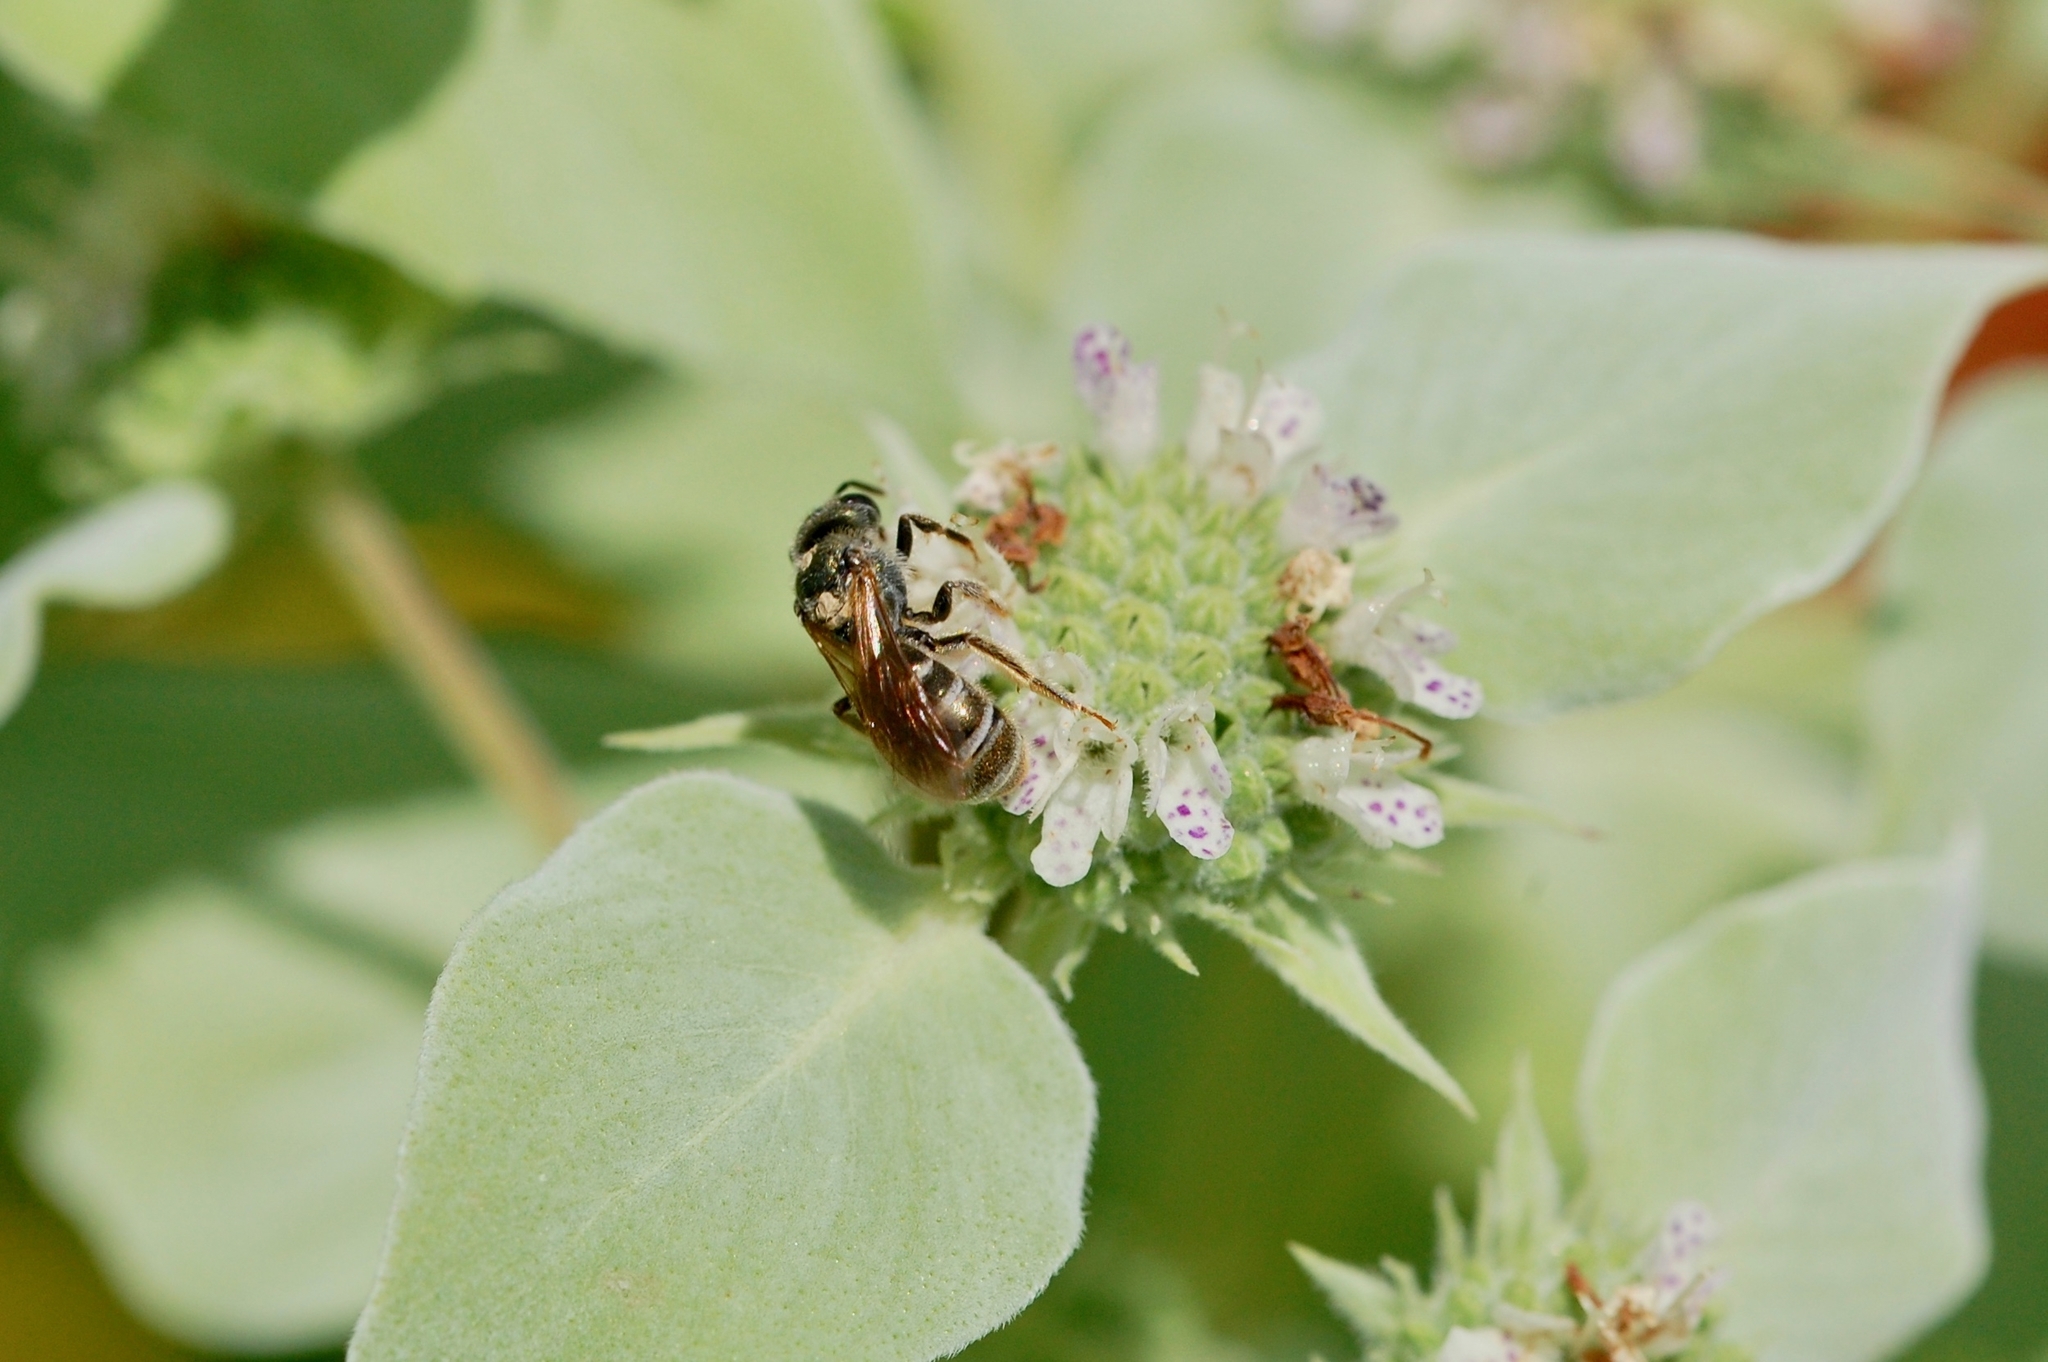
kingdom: Animalia
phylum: Arthropoda
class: Insecta
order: Hymenoptera
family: Halictidae
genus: Halictus
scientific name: Halictus confusus
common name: Southern bronze furrow bee
